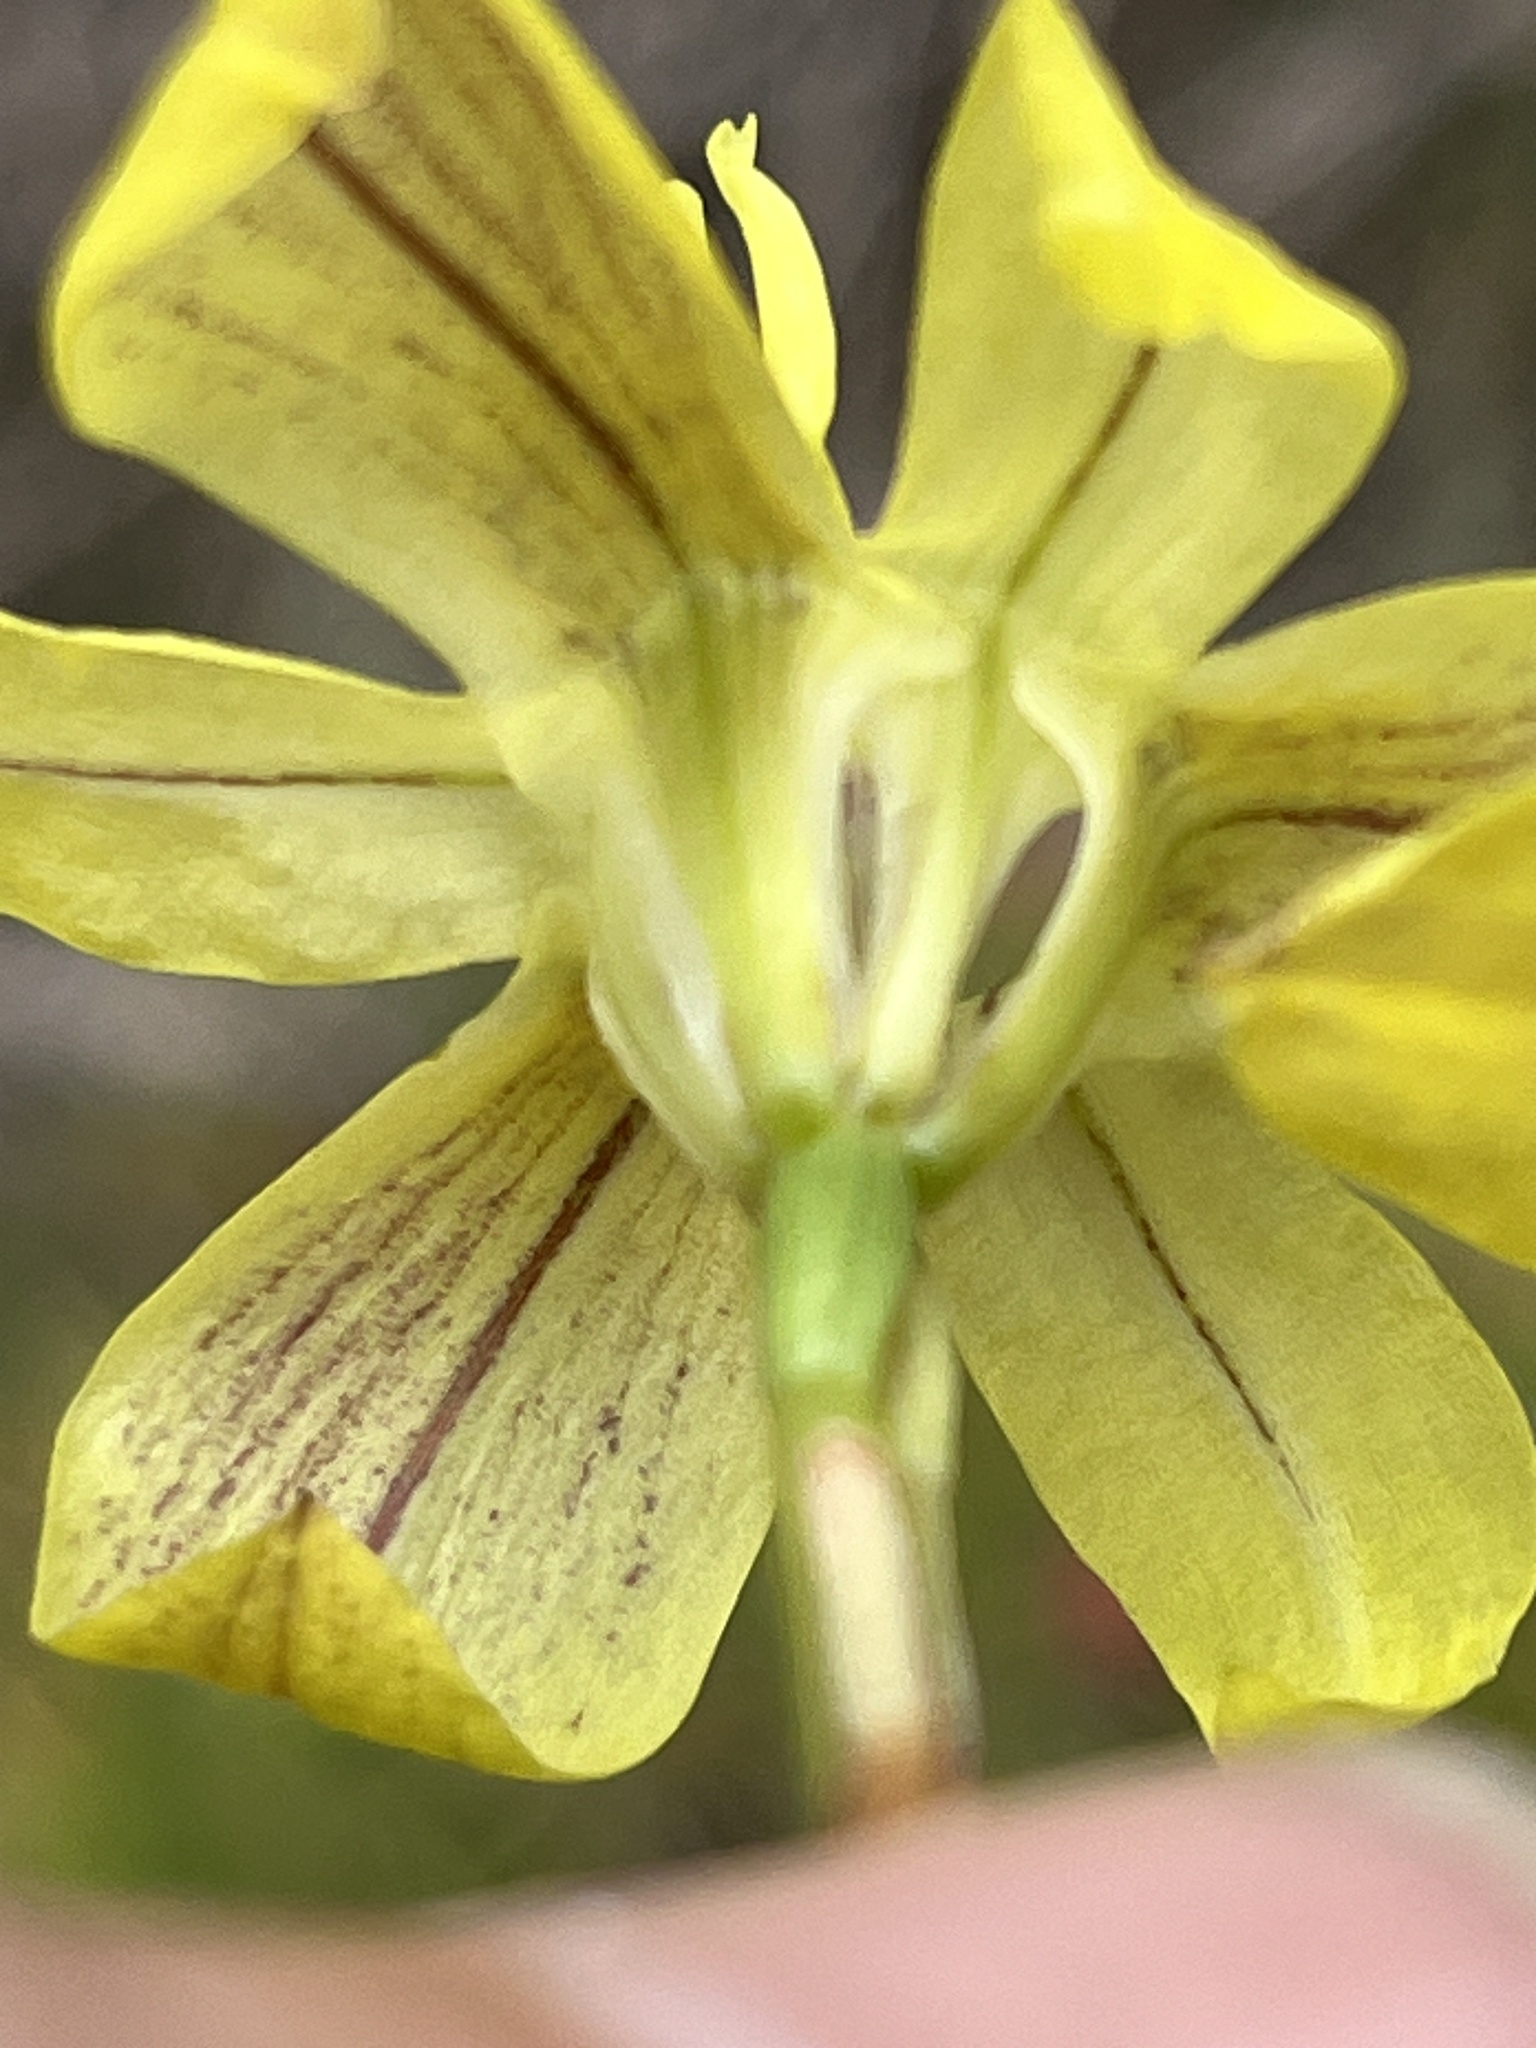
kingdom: Plantae
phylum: Tracheophyta
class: Liliopsida
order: Asparagales
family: Iridaceae
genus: Moraea
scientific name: Moraea bituminosa
